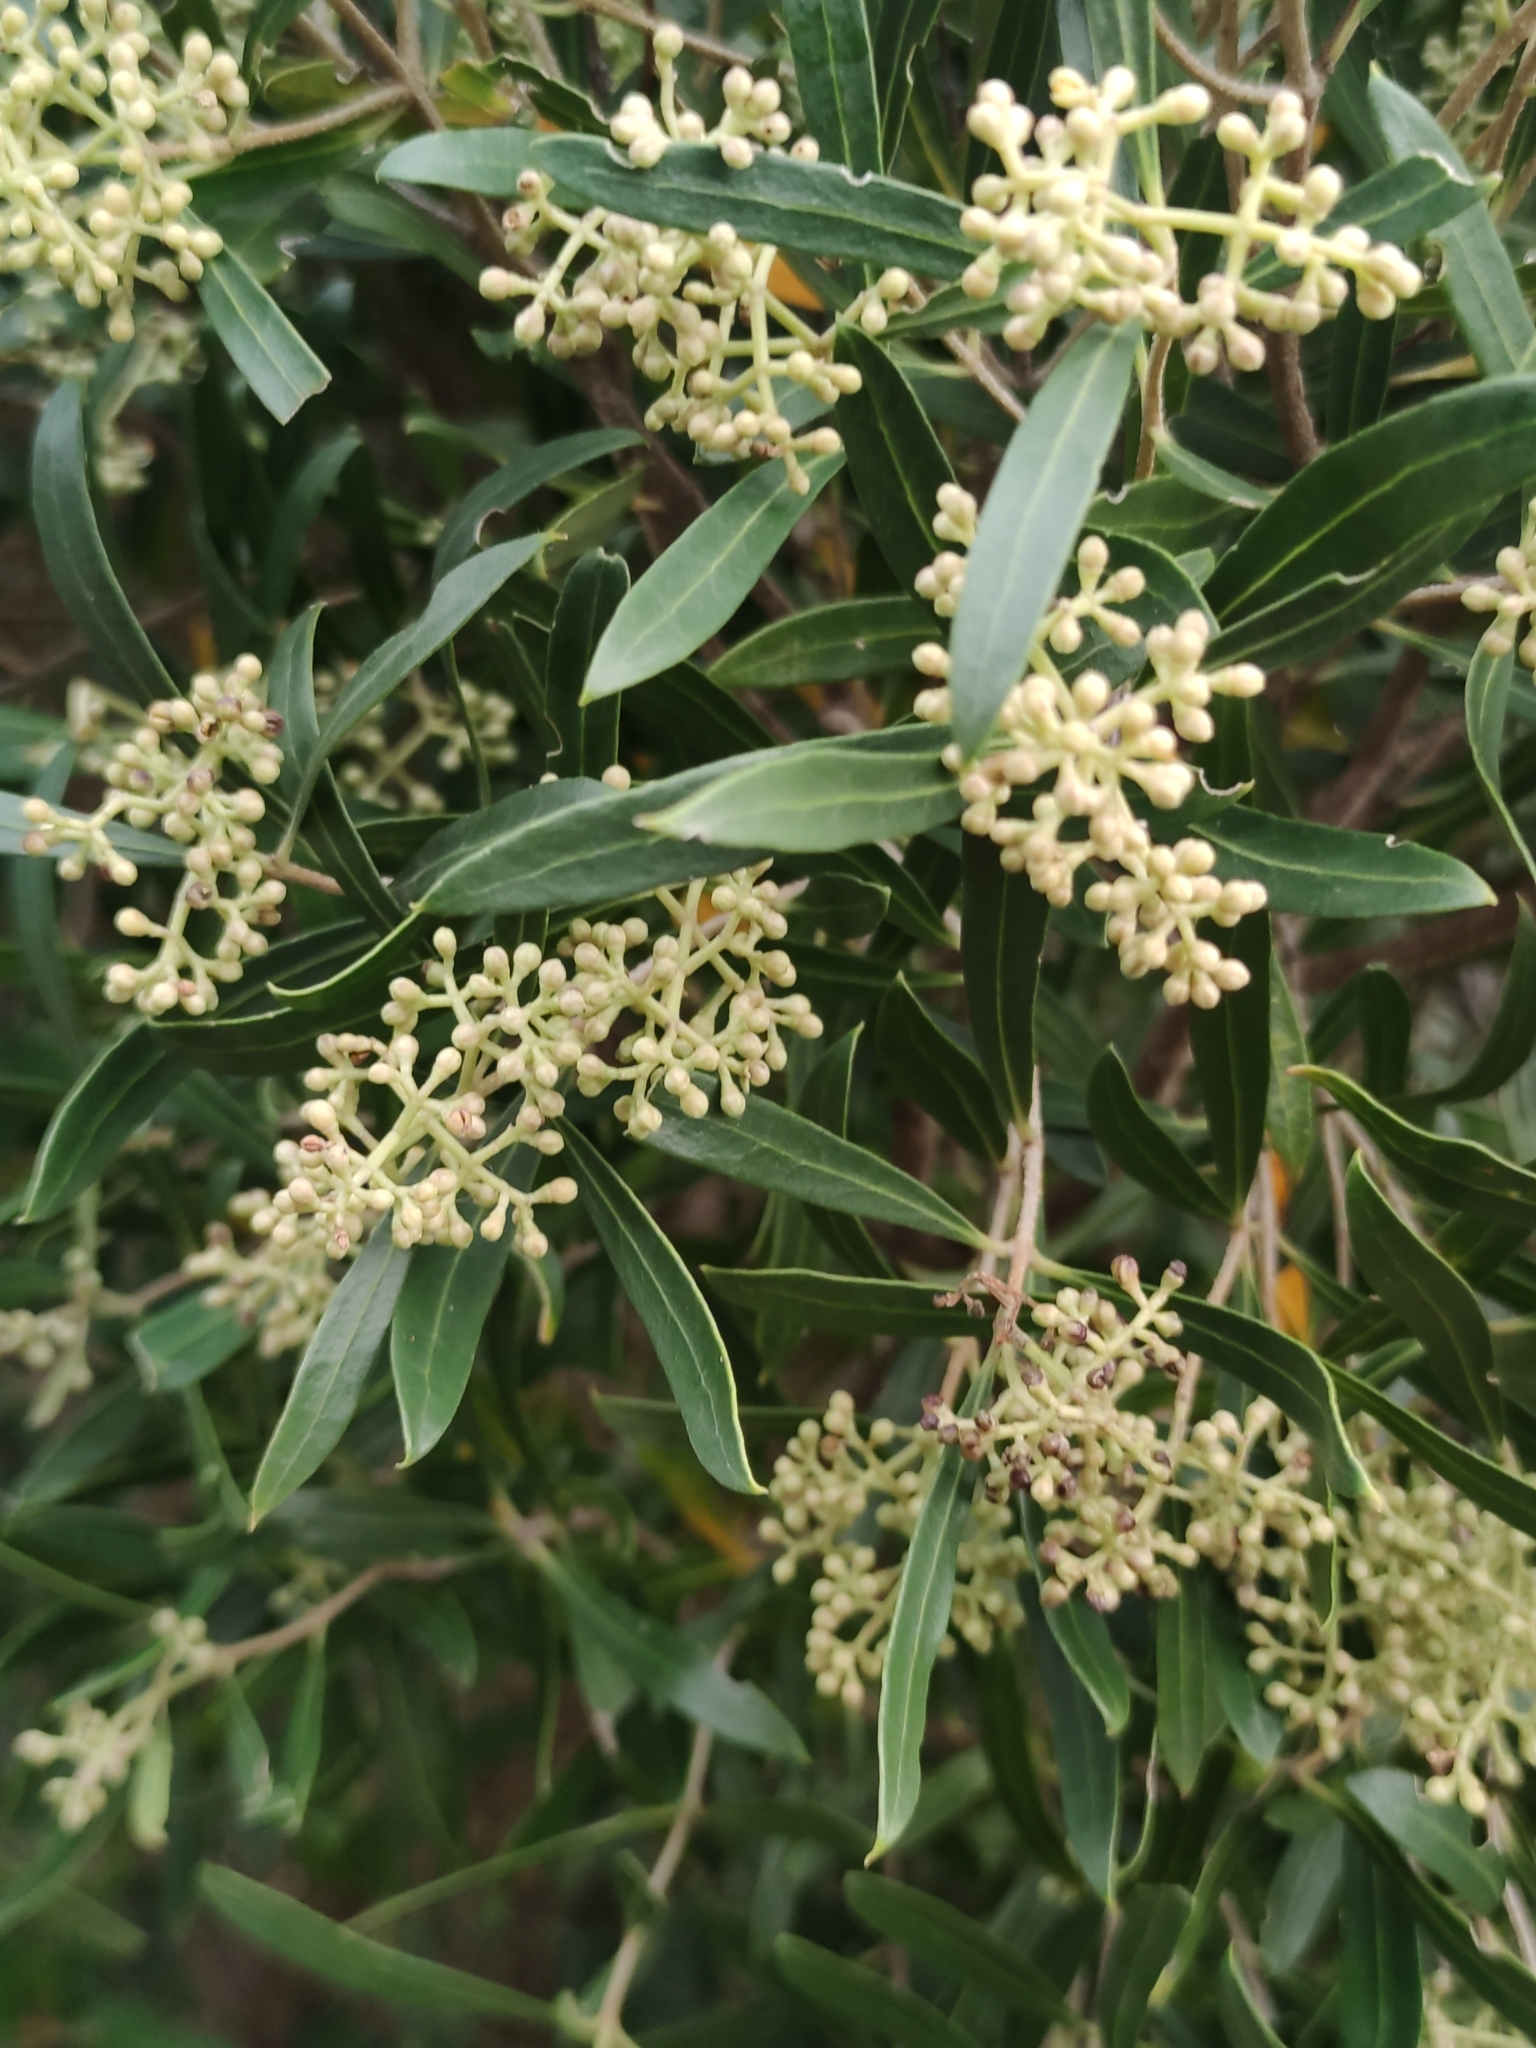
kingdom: Plantae
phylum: Tracheophyta
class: Magnoliopsida
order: Lamiales
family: Oleaceae
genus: Olea
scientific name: Olea exasperata
